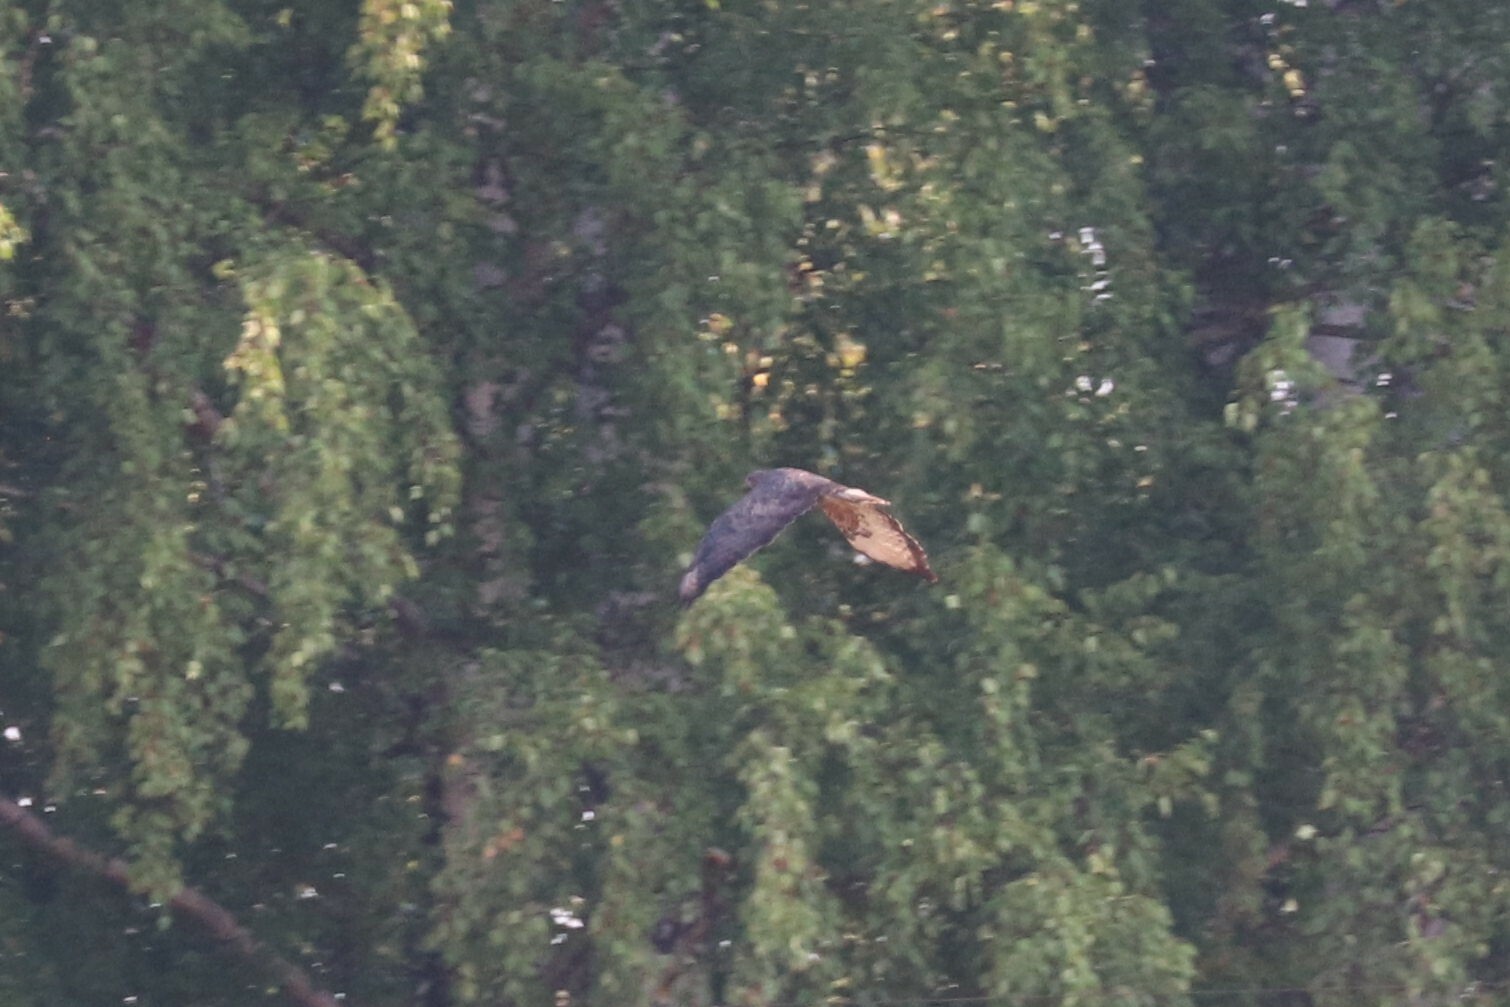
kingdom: Animalia
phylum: Chordata
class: Aves
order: Accipitriformes
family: Accipitridae
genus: Buteo
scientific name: Buteo buteo
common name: Common buzzard
